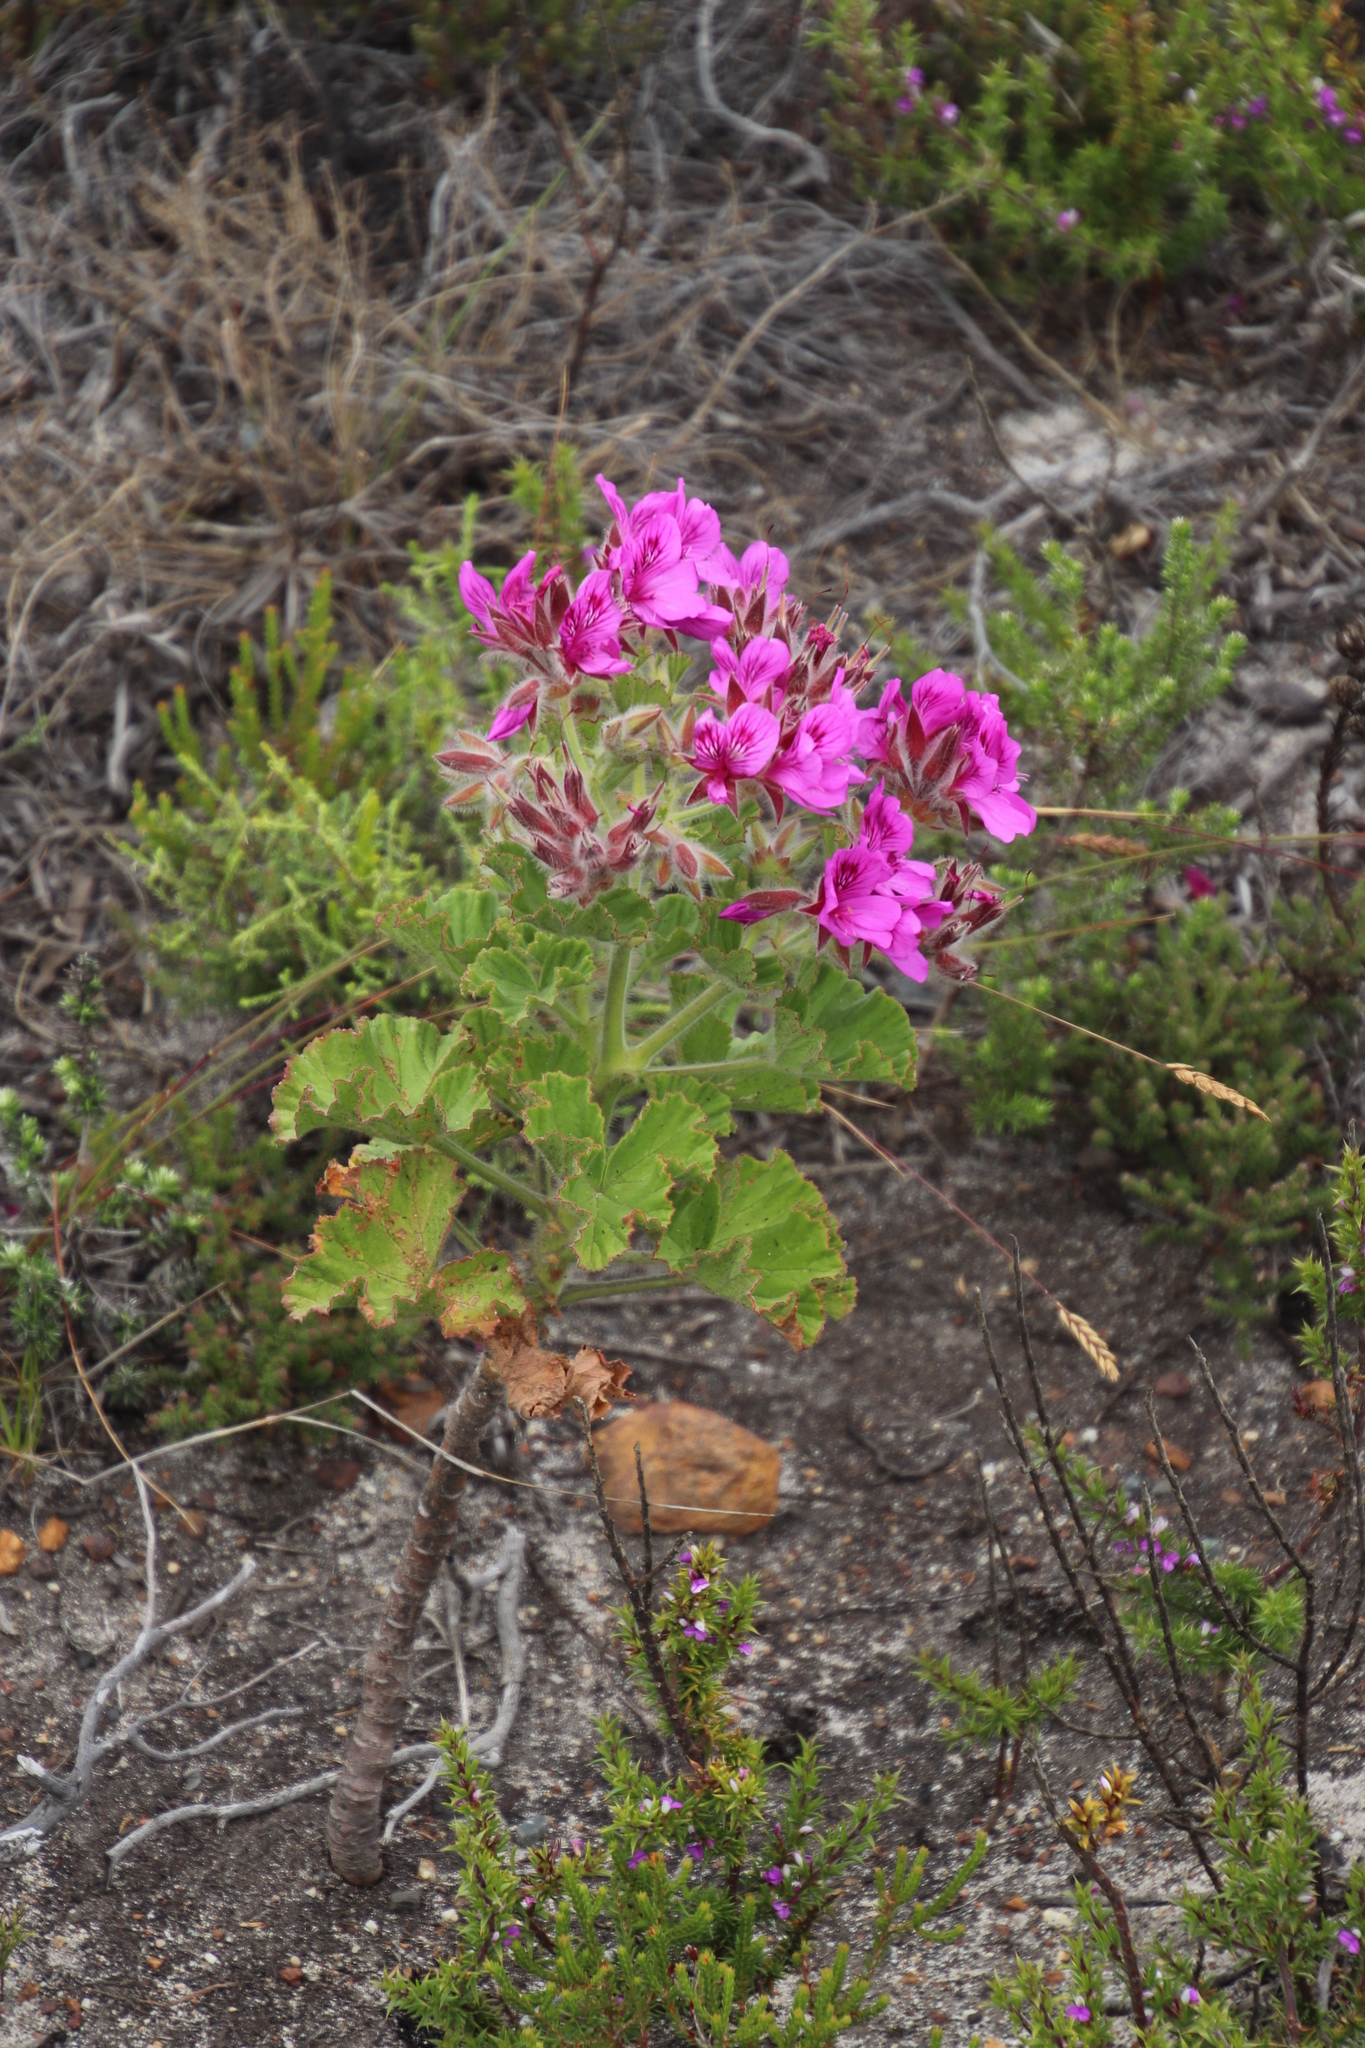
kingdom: Plantae
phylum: Tracheophyta
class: Magnoliopsida
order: Geraniales
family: Geraniaceae
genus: Pelargonium
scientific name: Pelargonium cucullatum
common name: Tree pelargonium
